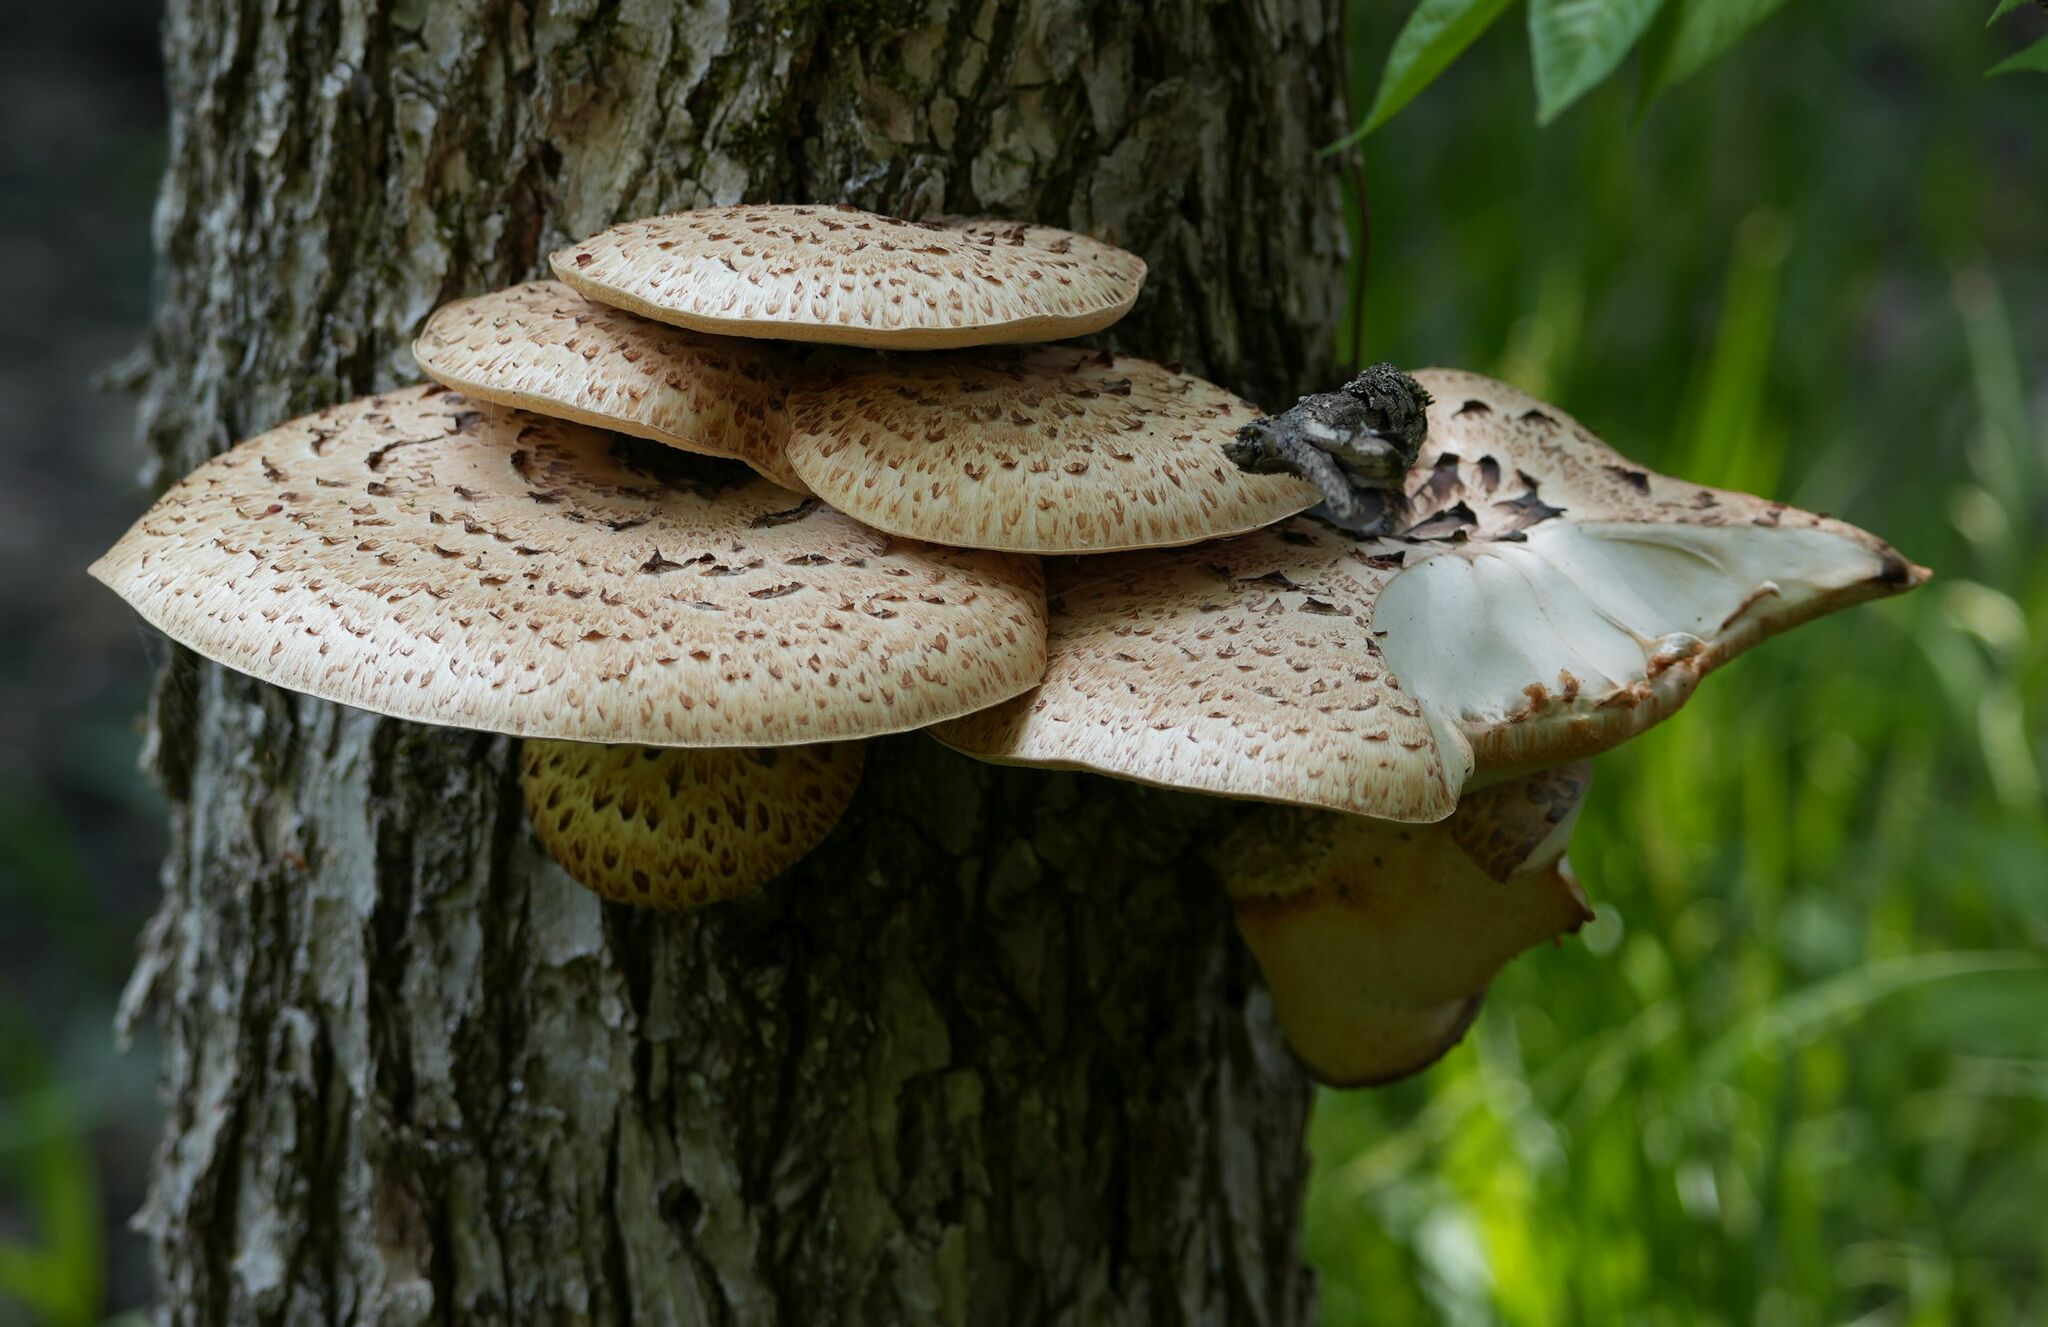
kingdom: Fungi
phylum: Basidiomycota
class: Agaricomycetes
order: Polyporales
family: Polyporaceae
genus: Cerioporus
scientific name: Cerioporus squamosus
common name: Dryad's saddle
